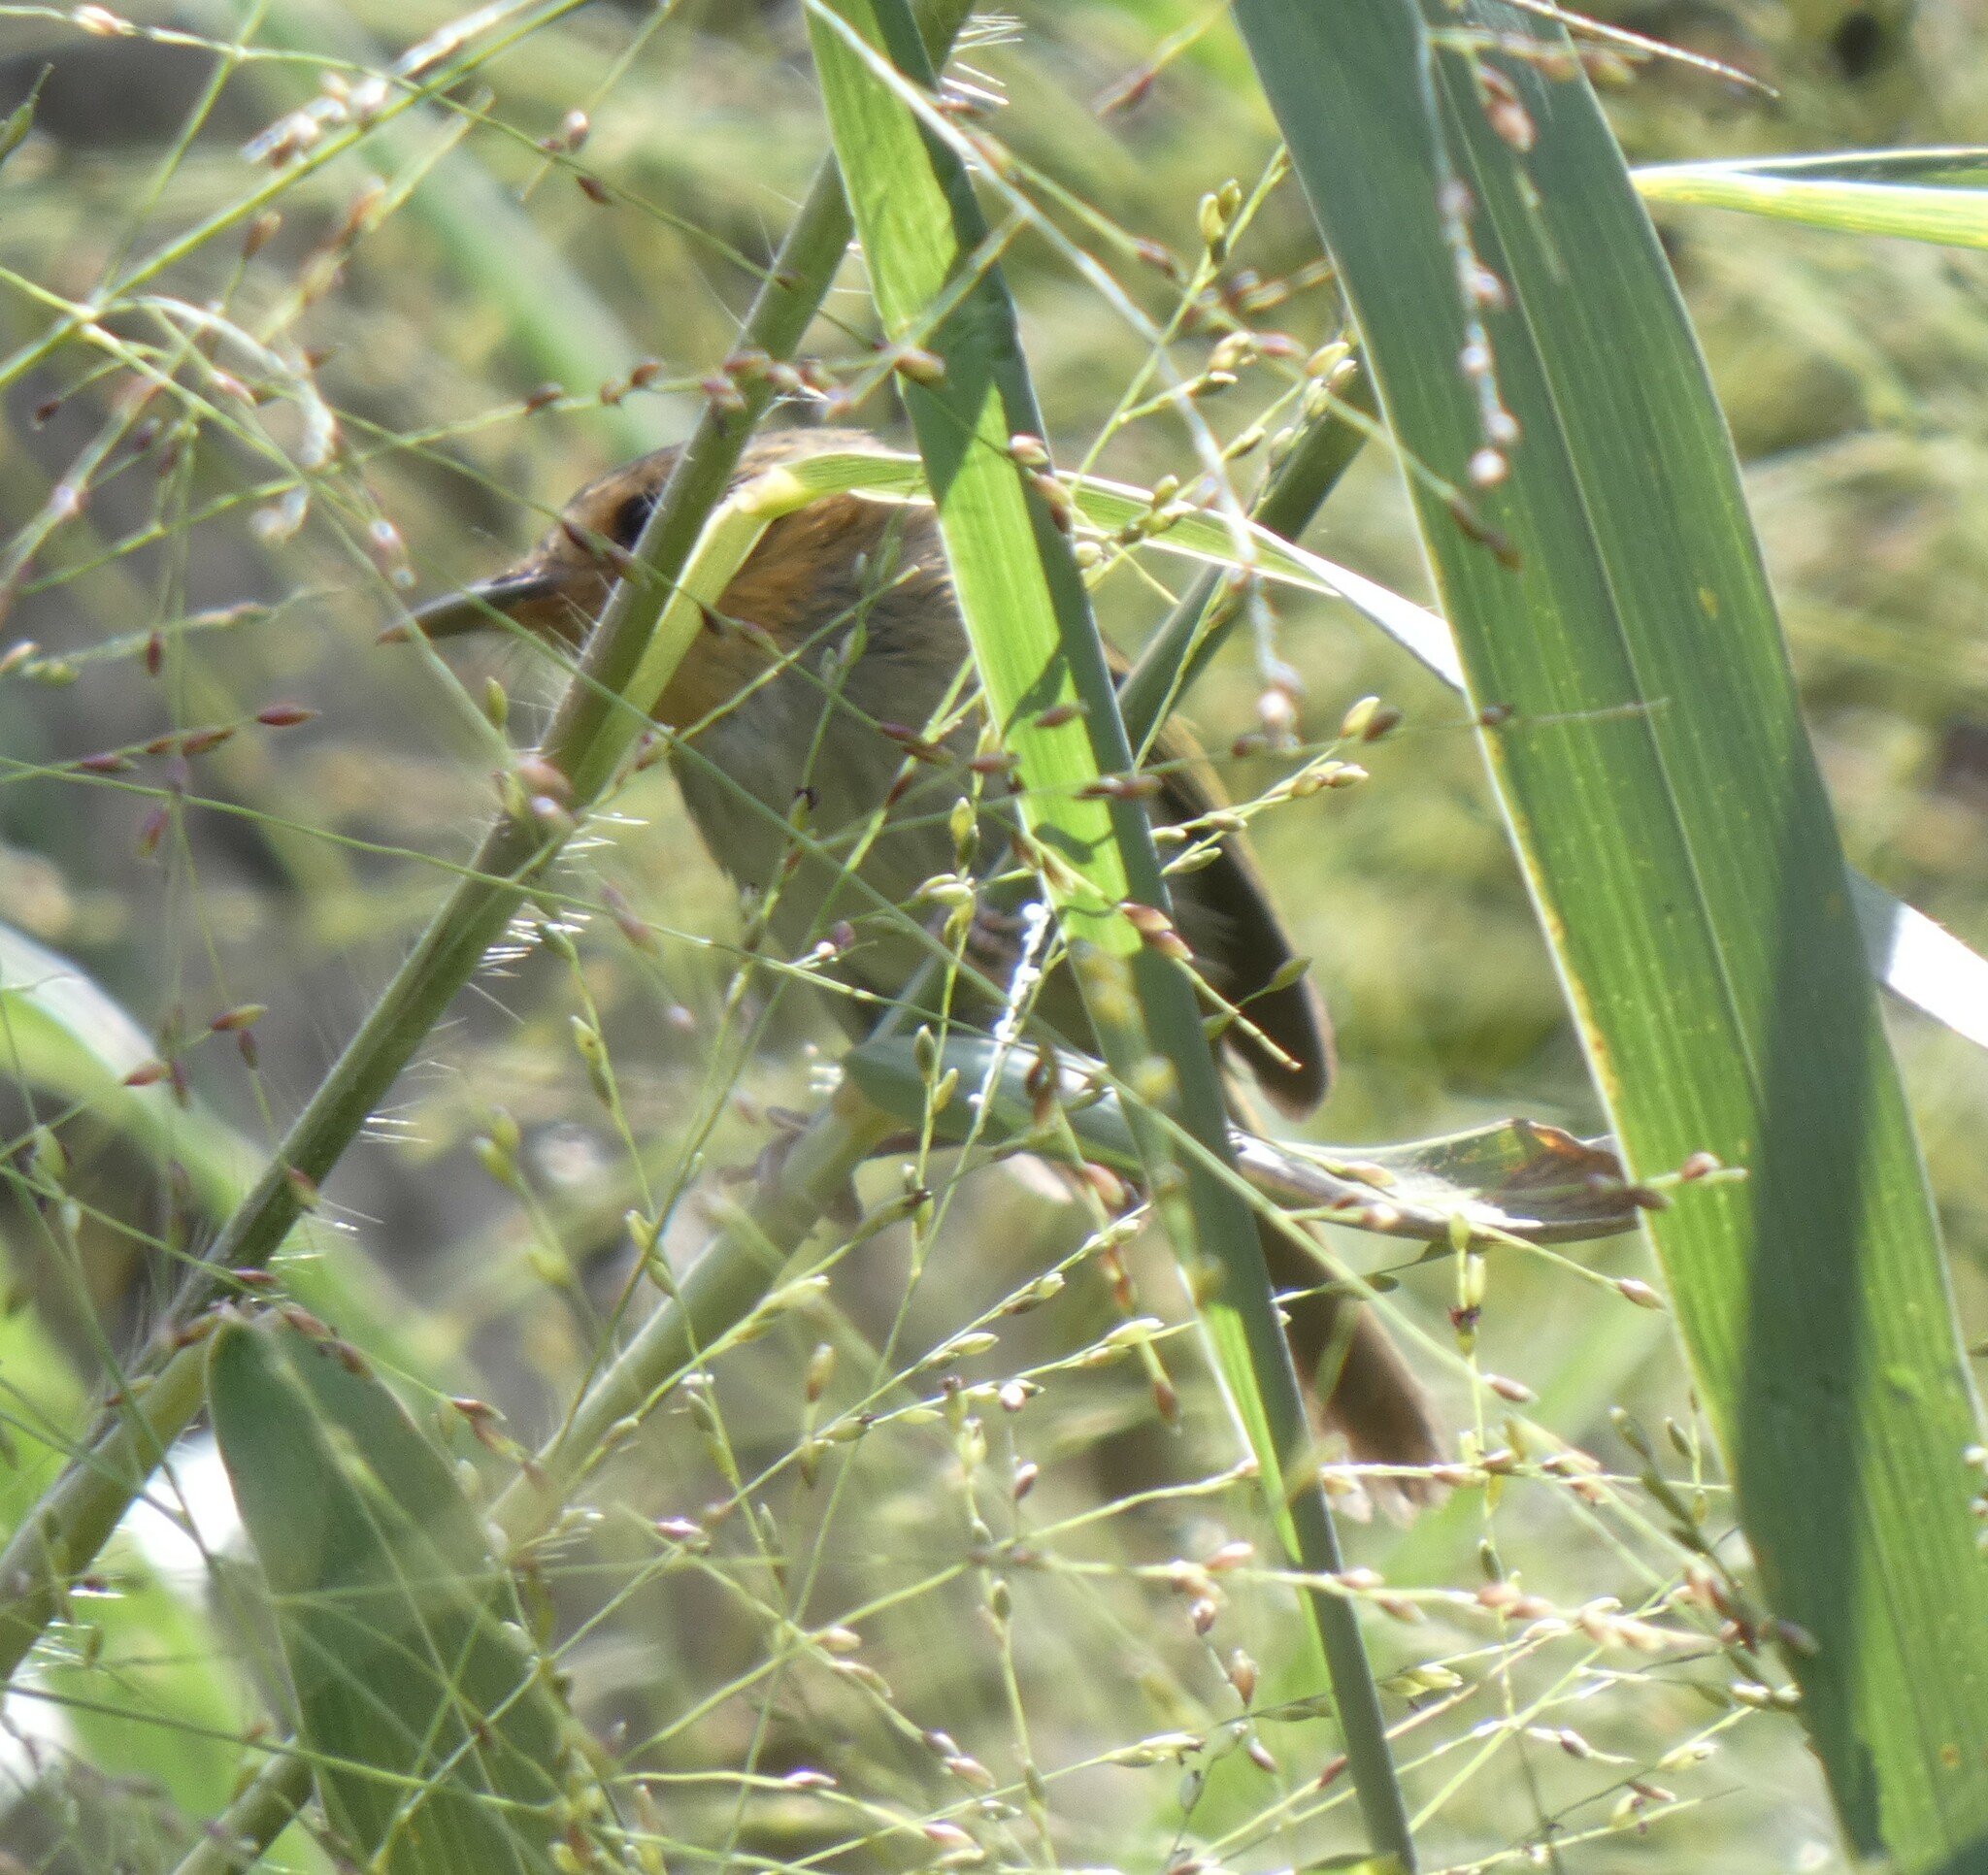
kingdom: Animalia
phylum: Chordata
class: Aves
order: Passeriformes
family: Tyrannidae
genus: Poecilotriccus
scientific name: Poecilotriccus plumbeiceps
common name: Ochre-faced tody-flycatcher
